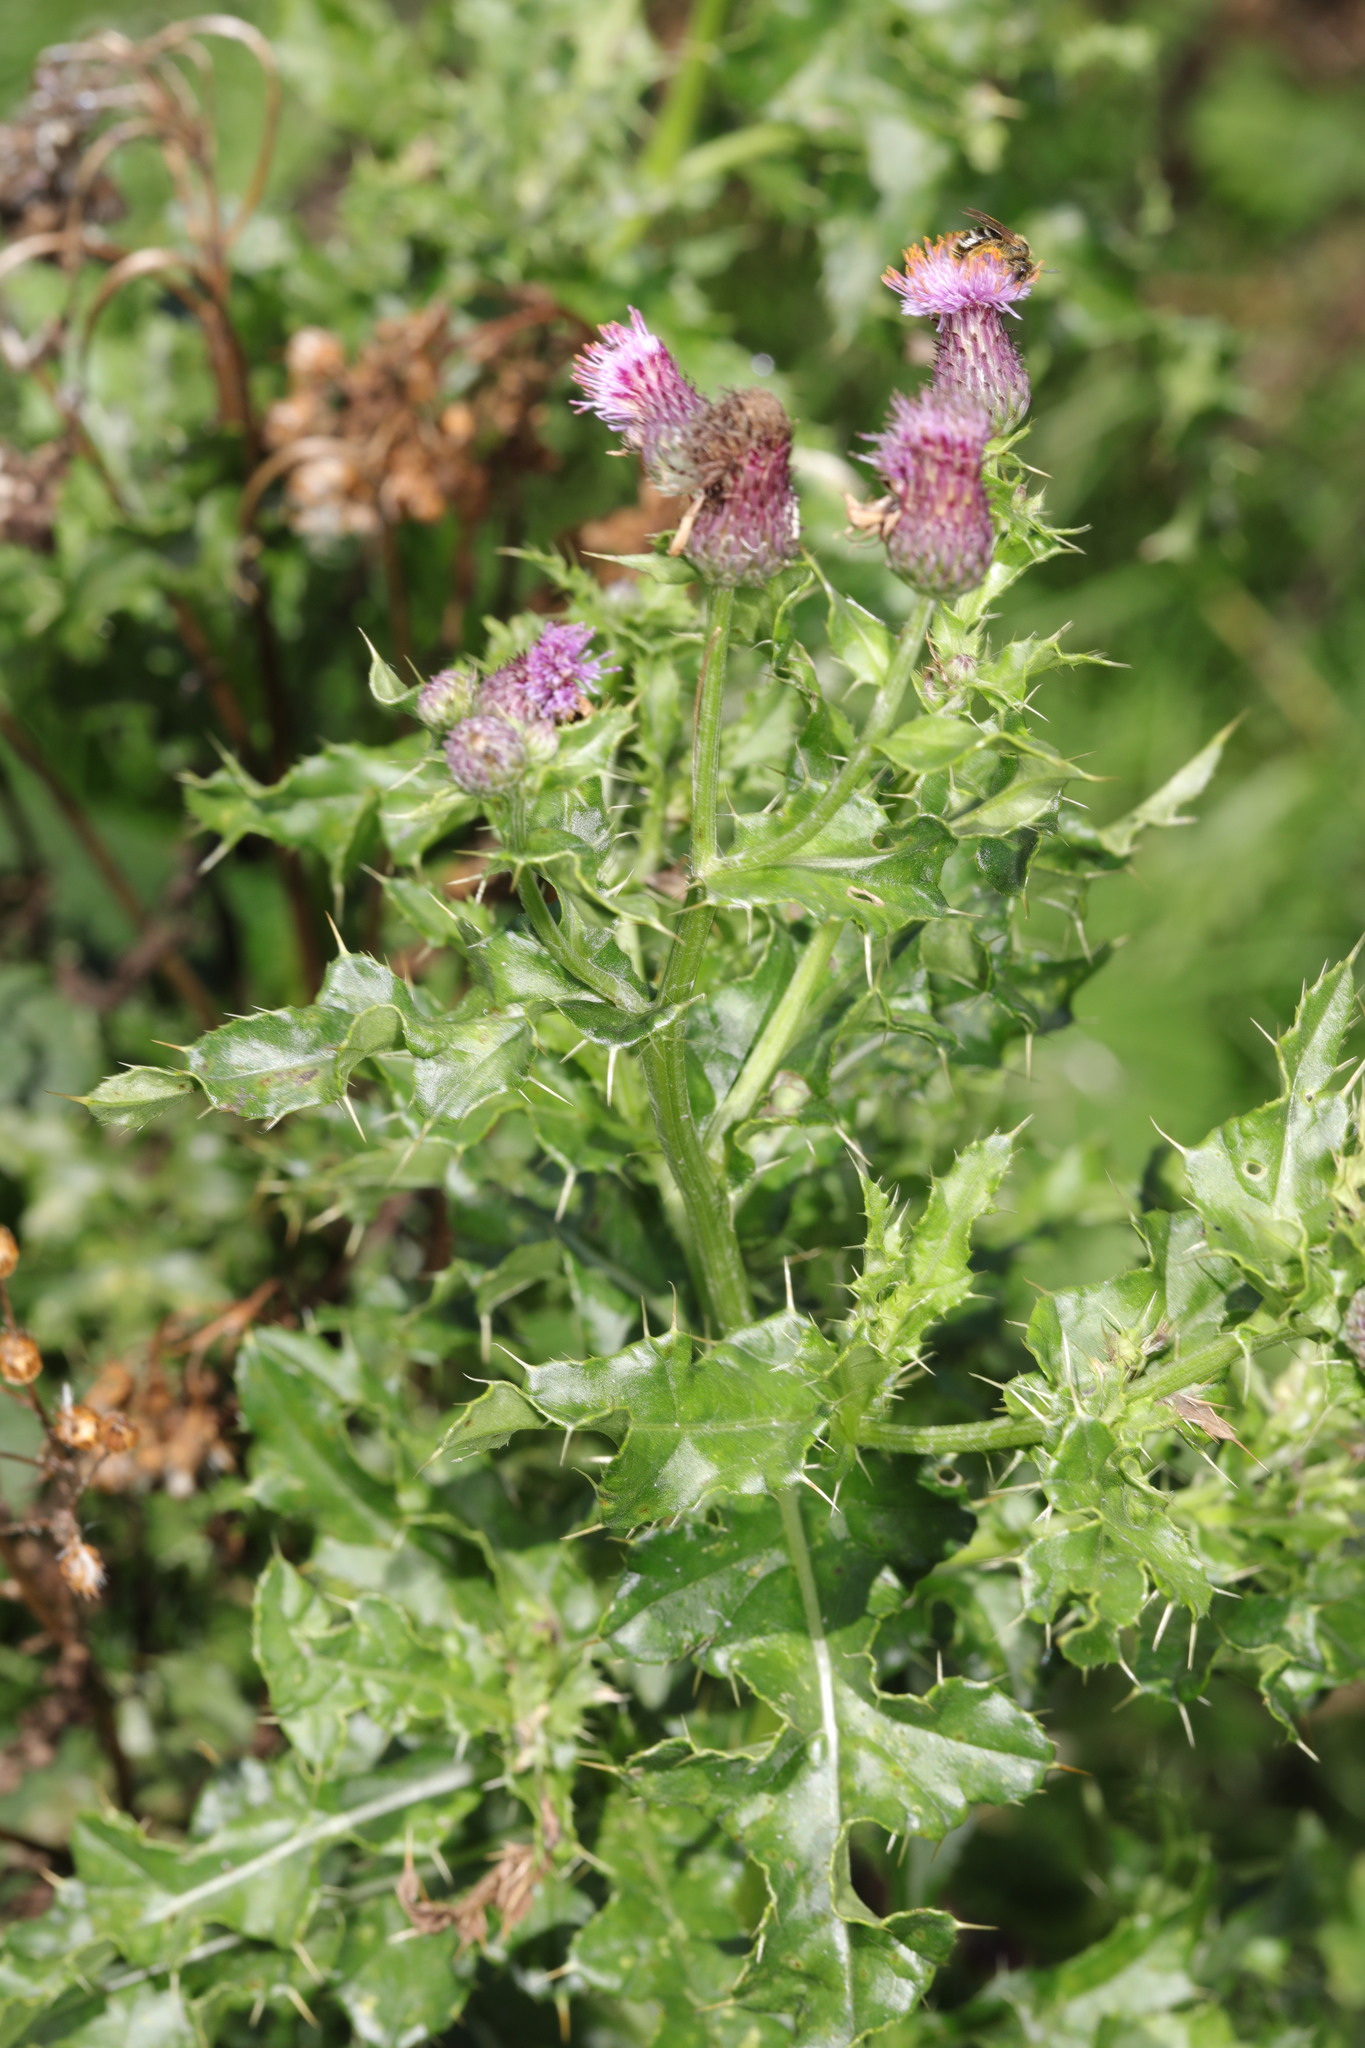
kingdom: Plantae
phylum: Tracheophyta
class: Magnoliopsida
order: Asterales
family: Asteraceae
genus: Cirsium
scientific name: Cirsium arvense
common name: Creeping thistle
